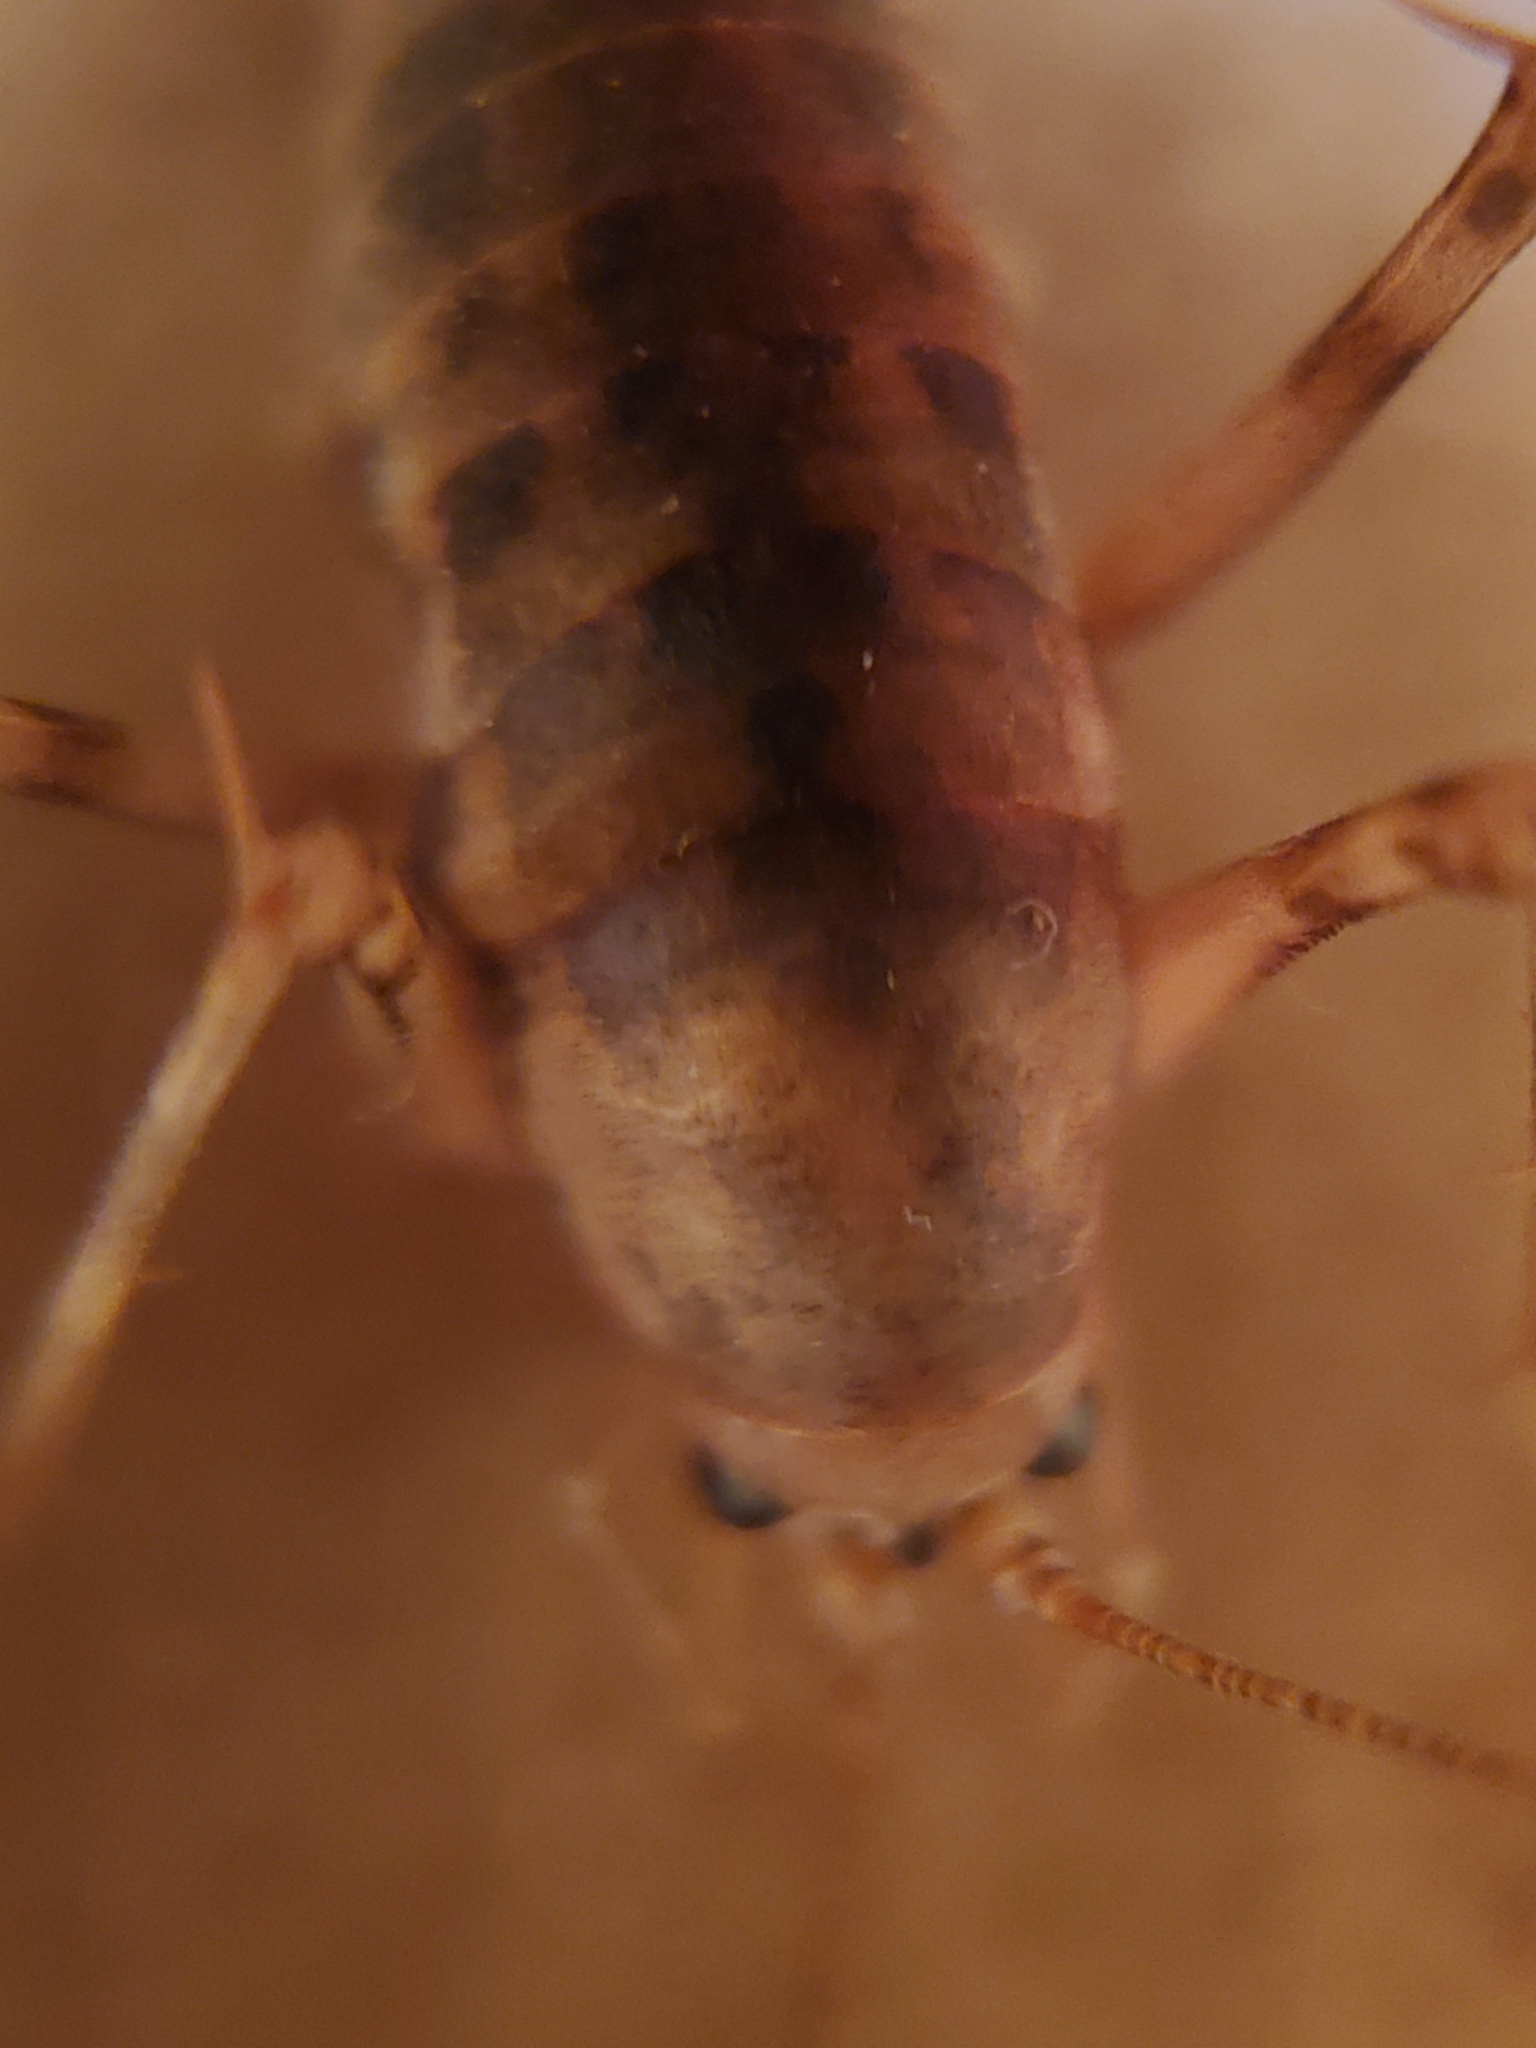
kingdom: Animalia
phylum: Arthropoda
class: Insecta
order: Orthoptera
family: Rhaphidophoridae
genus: Tachycines
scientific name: Tachycines asynamorus
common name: Greenhouse camel cricket
